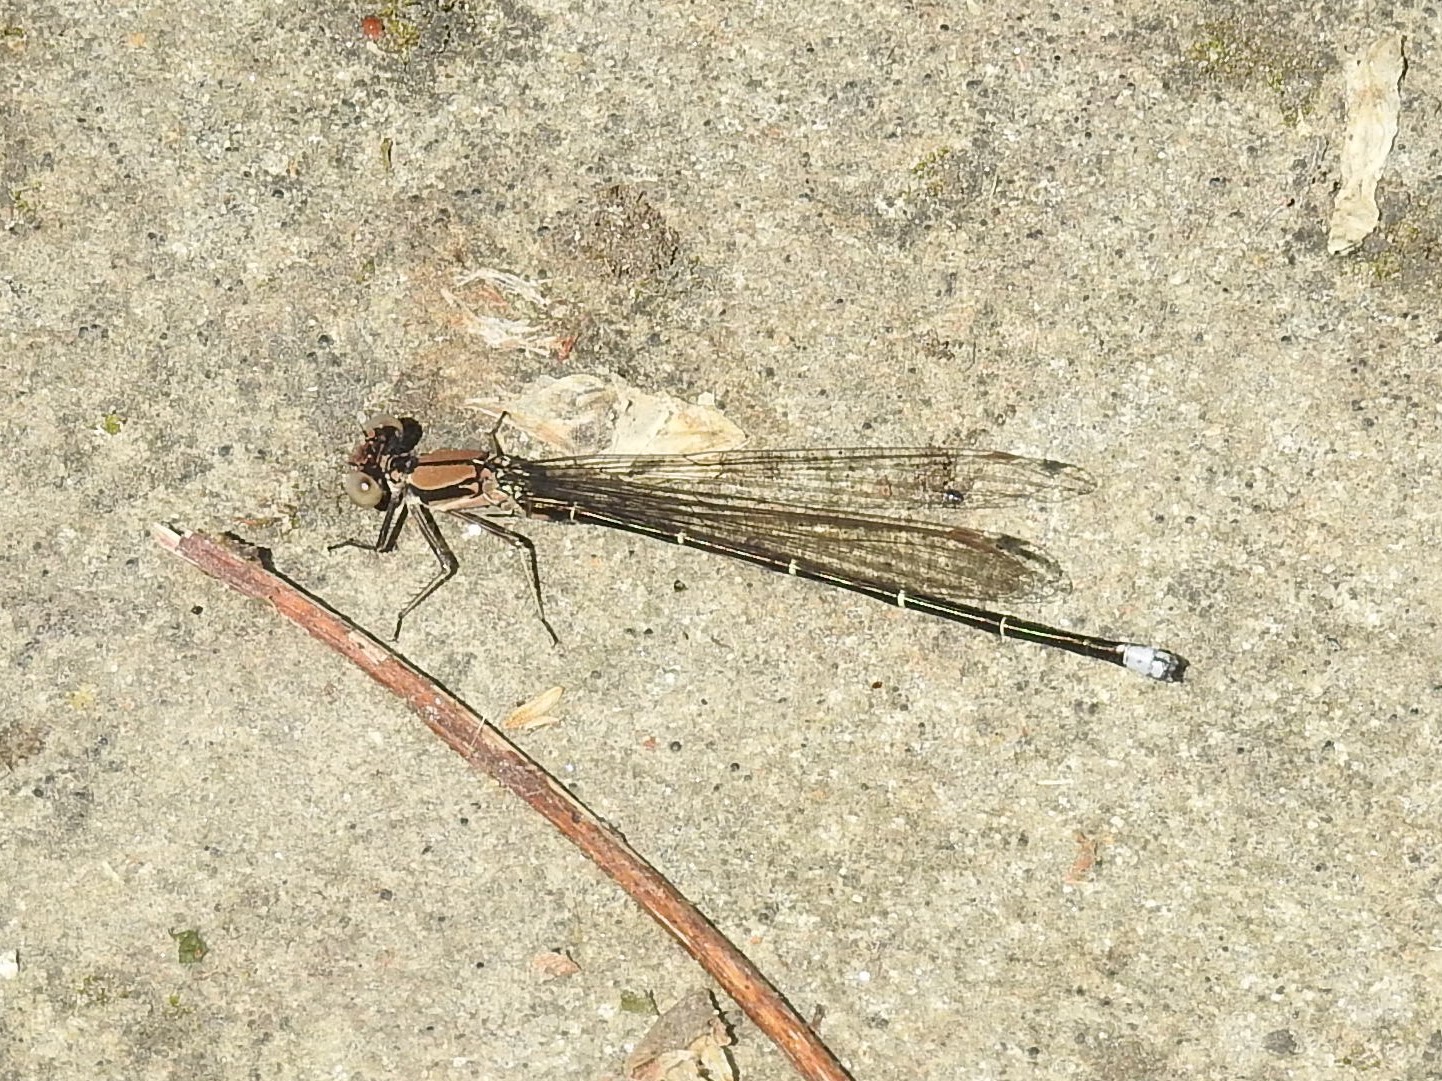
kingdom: Animalia
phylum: Arthropoda
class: Insecta
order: Odonata
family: Coenagrionidae
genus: Argia
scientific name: Argia tibialis
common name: Blue-tipped dancer
